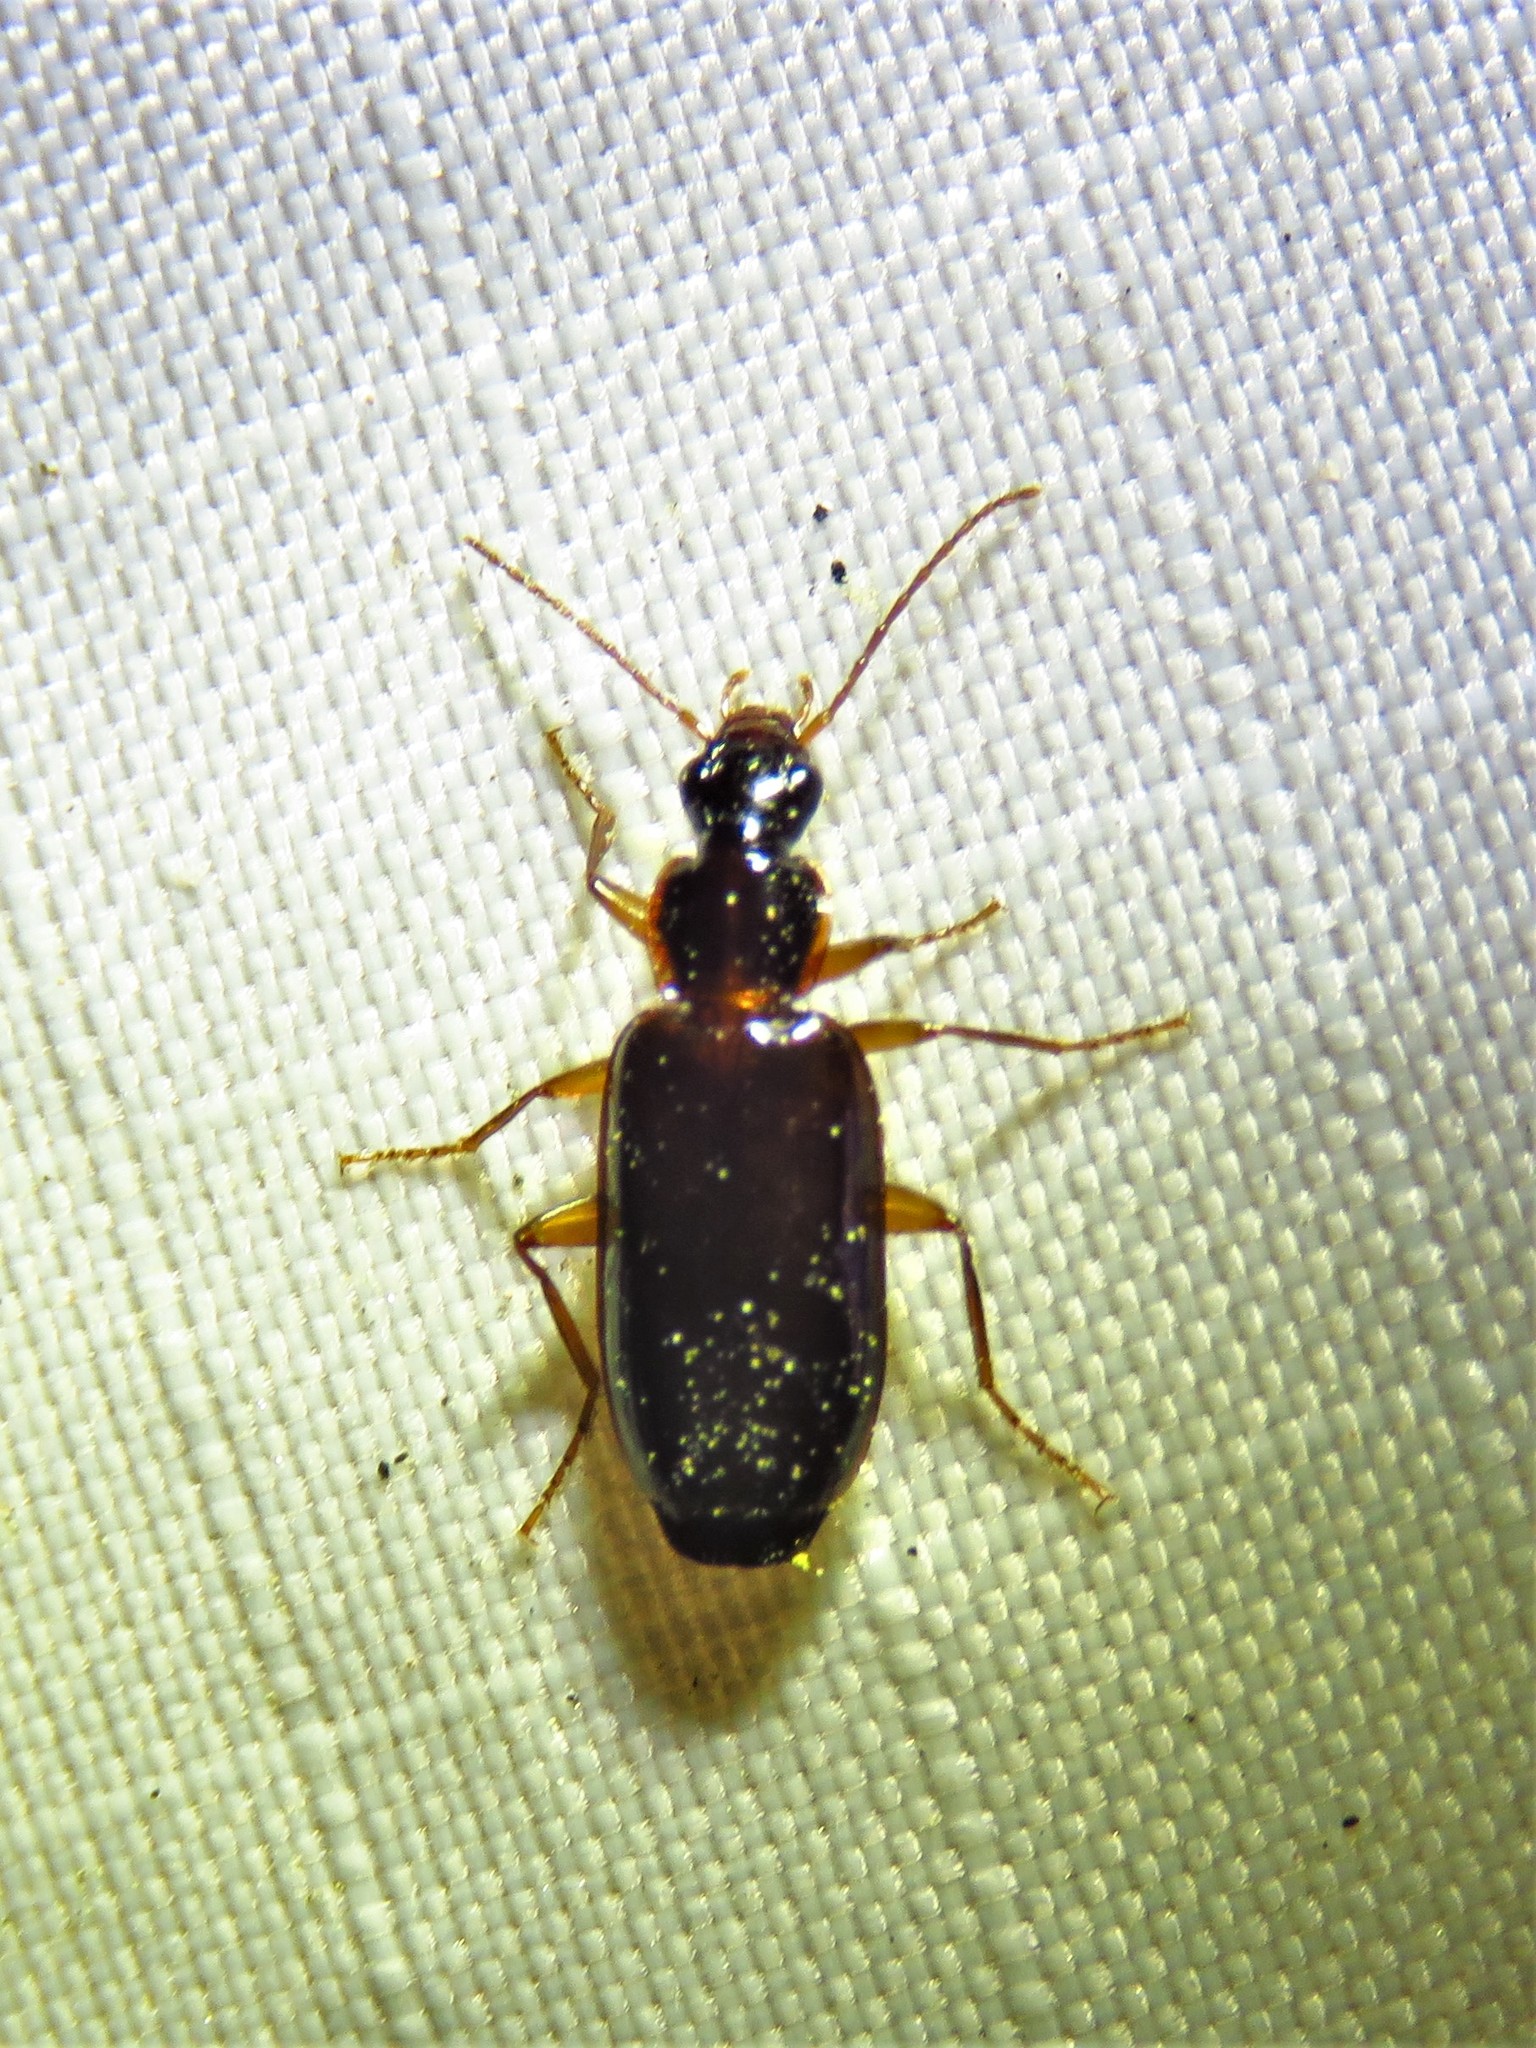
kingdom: Animalia
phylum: Arthropoda
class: Insecta
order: Coleoptera
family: Carabidae
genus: Dromius
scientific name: Dromius piceus
